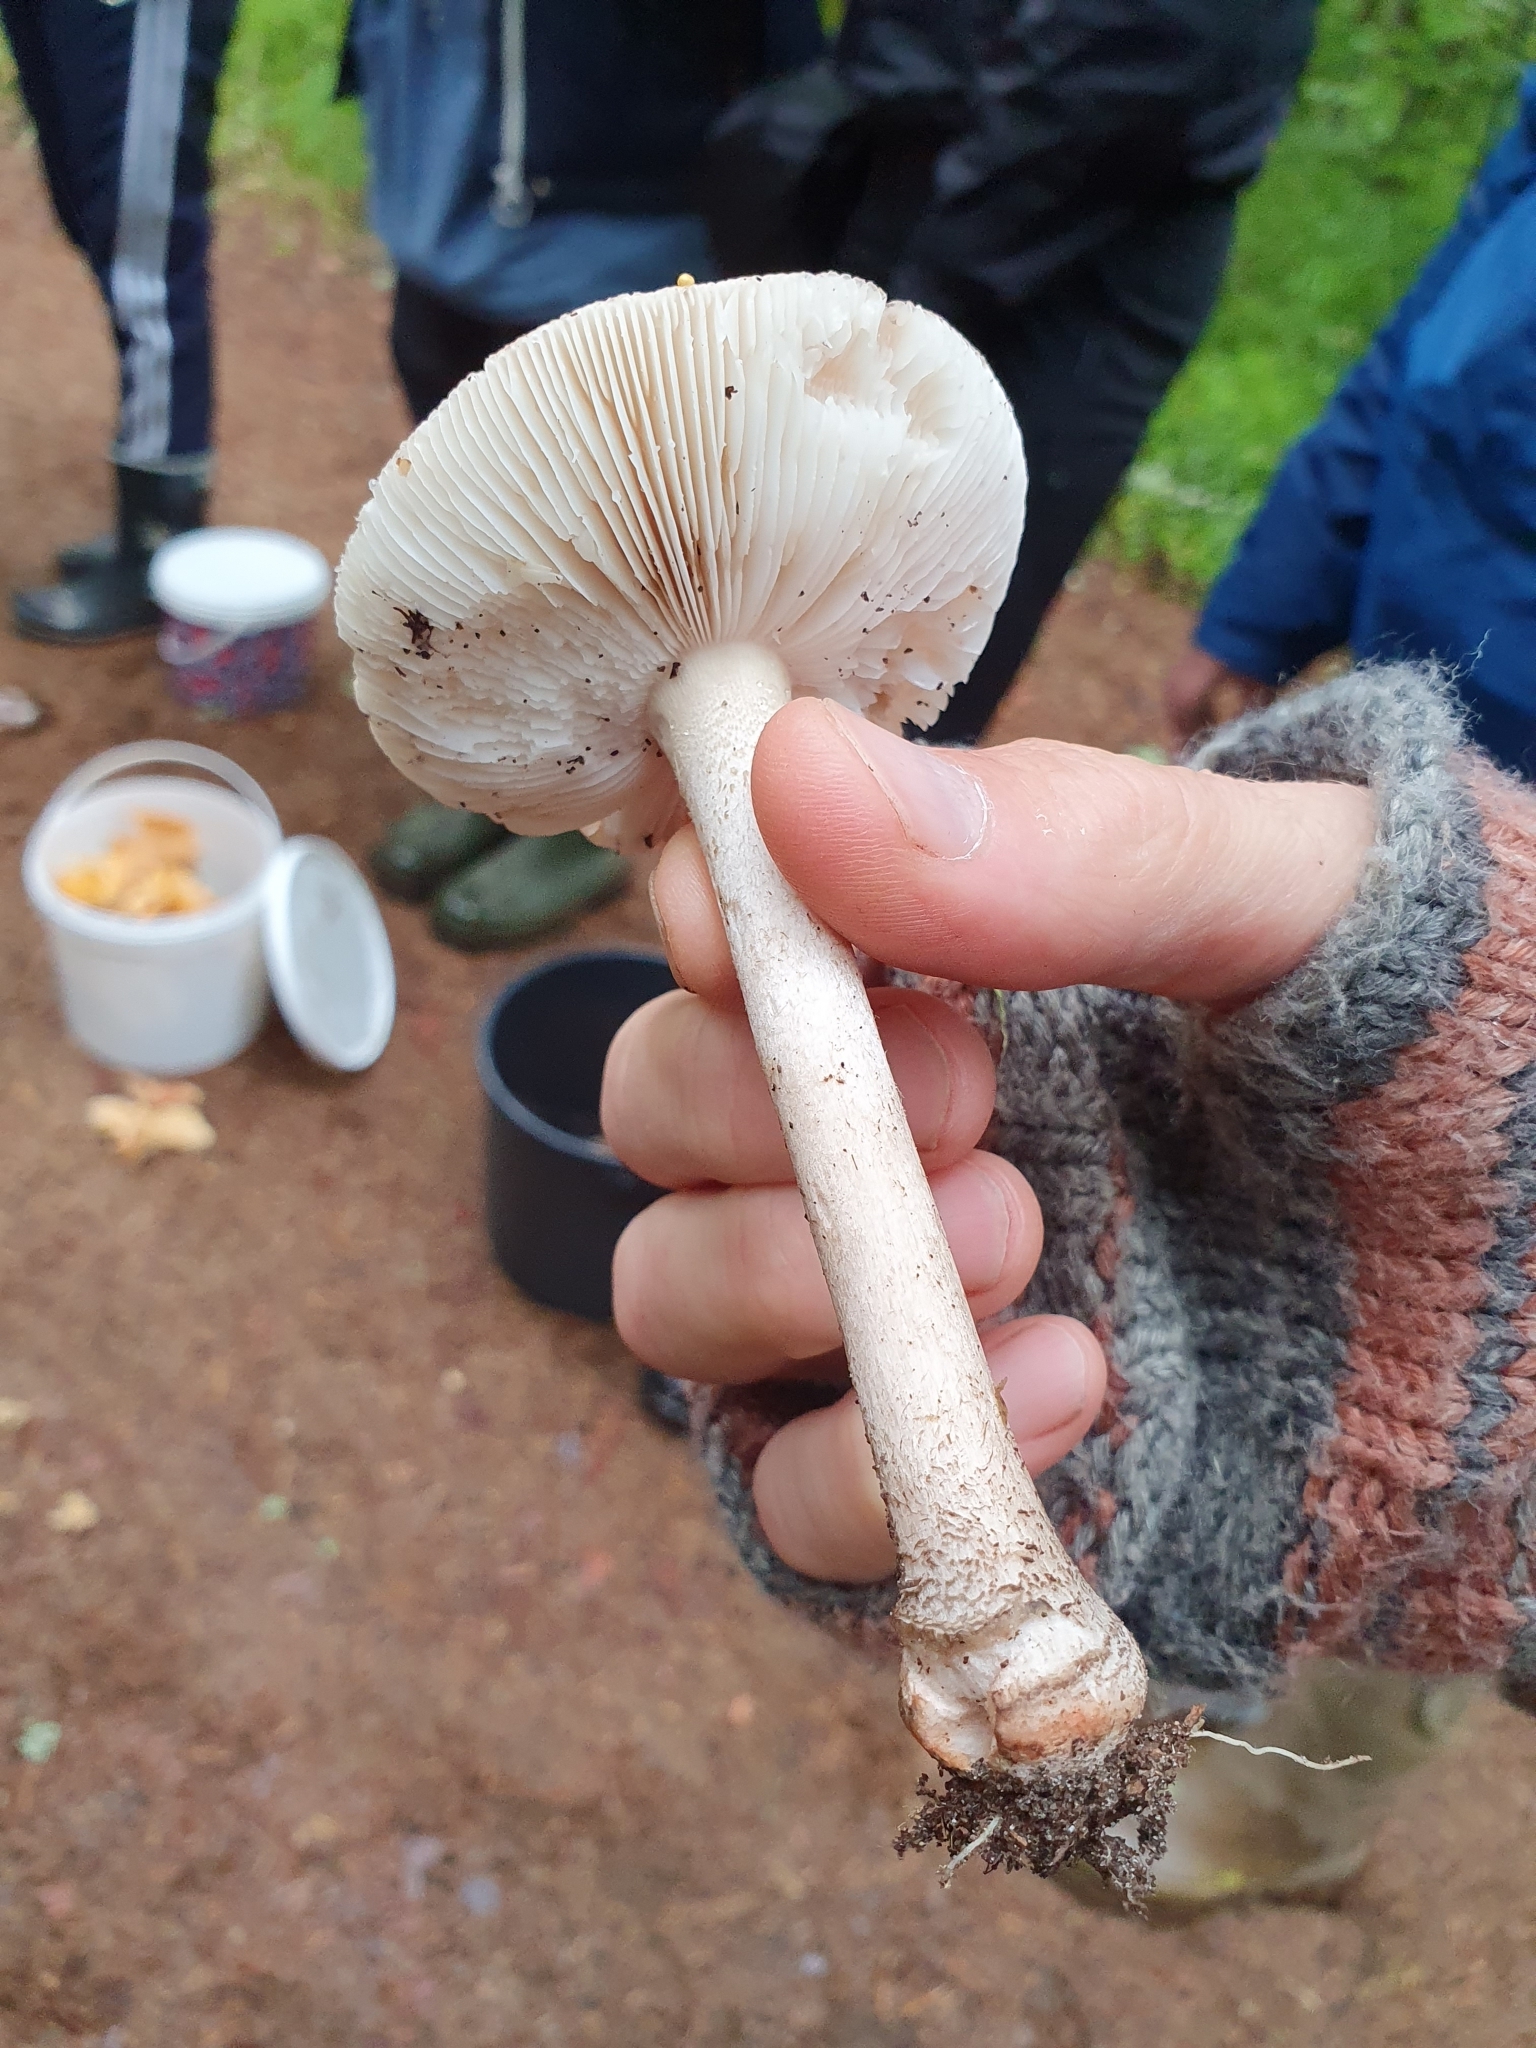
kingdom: Fungi
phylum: Basidiomycota
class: Agaricomycetes
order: Agaricales
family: Amanitaceae
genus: Amanita
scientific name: Amanita rubescens
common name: Blusher
